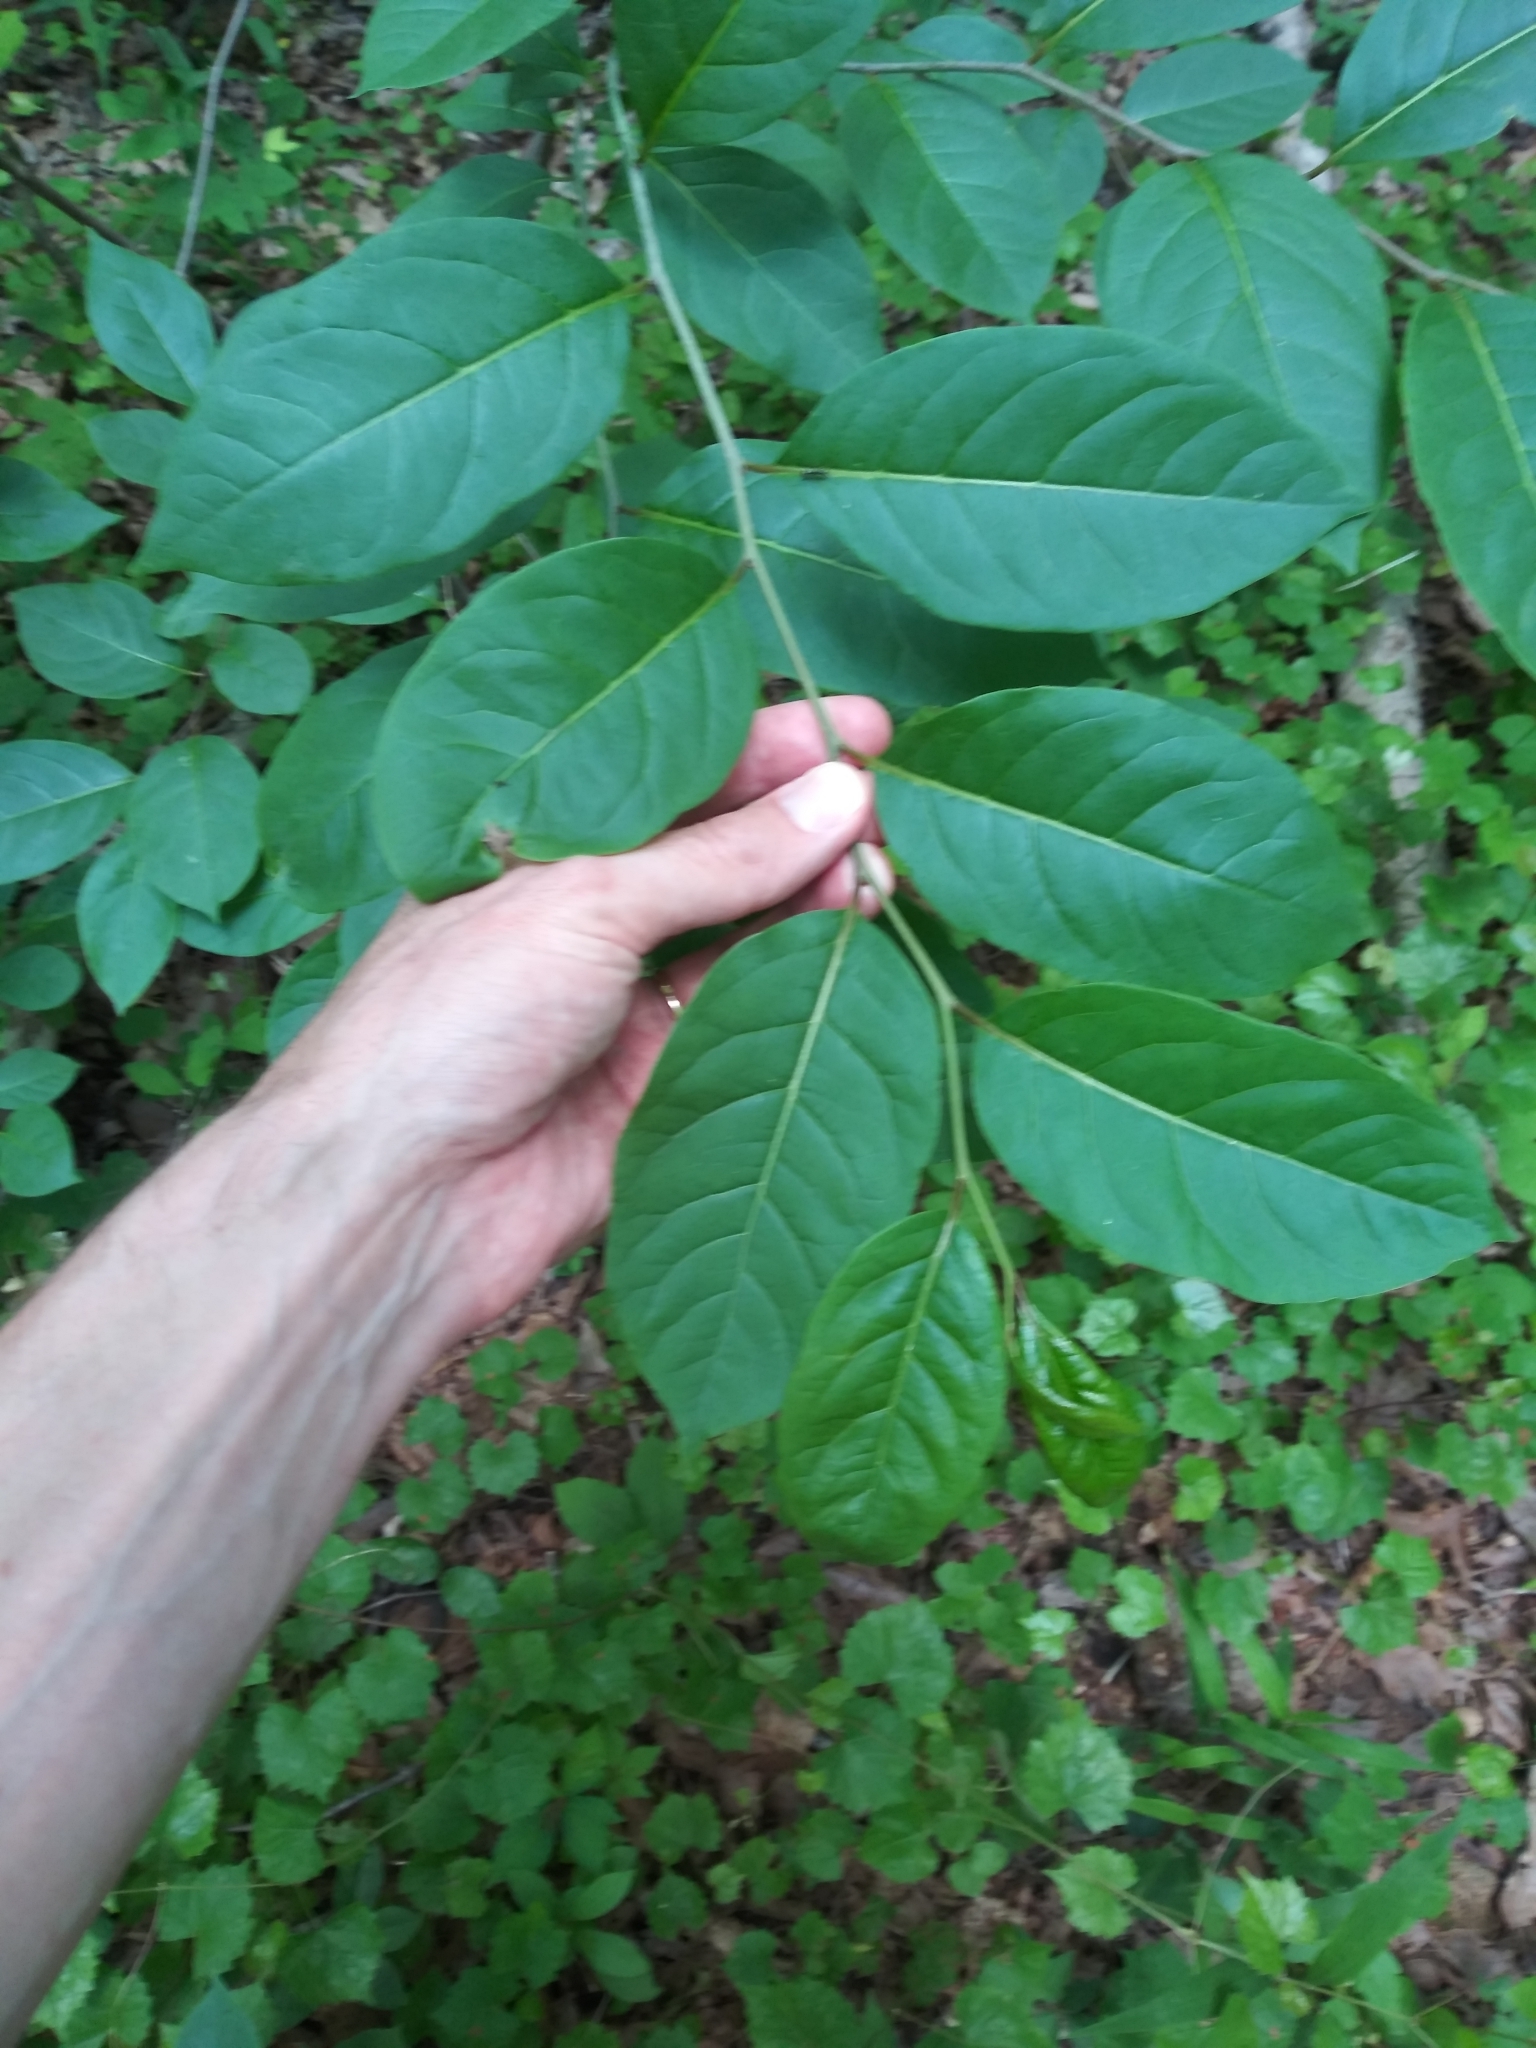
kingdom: Plantae
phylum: Tracheophyta
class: Magnoliopsida
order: Ericales
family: Ericaceae
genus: Oxydendrum
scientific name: Oxydendrum arboreum
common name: Sourwood
